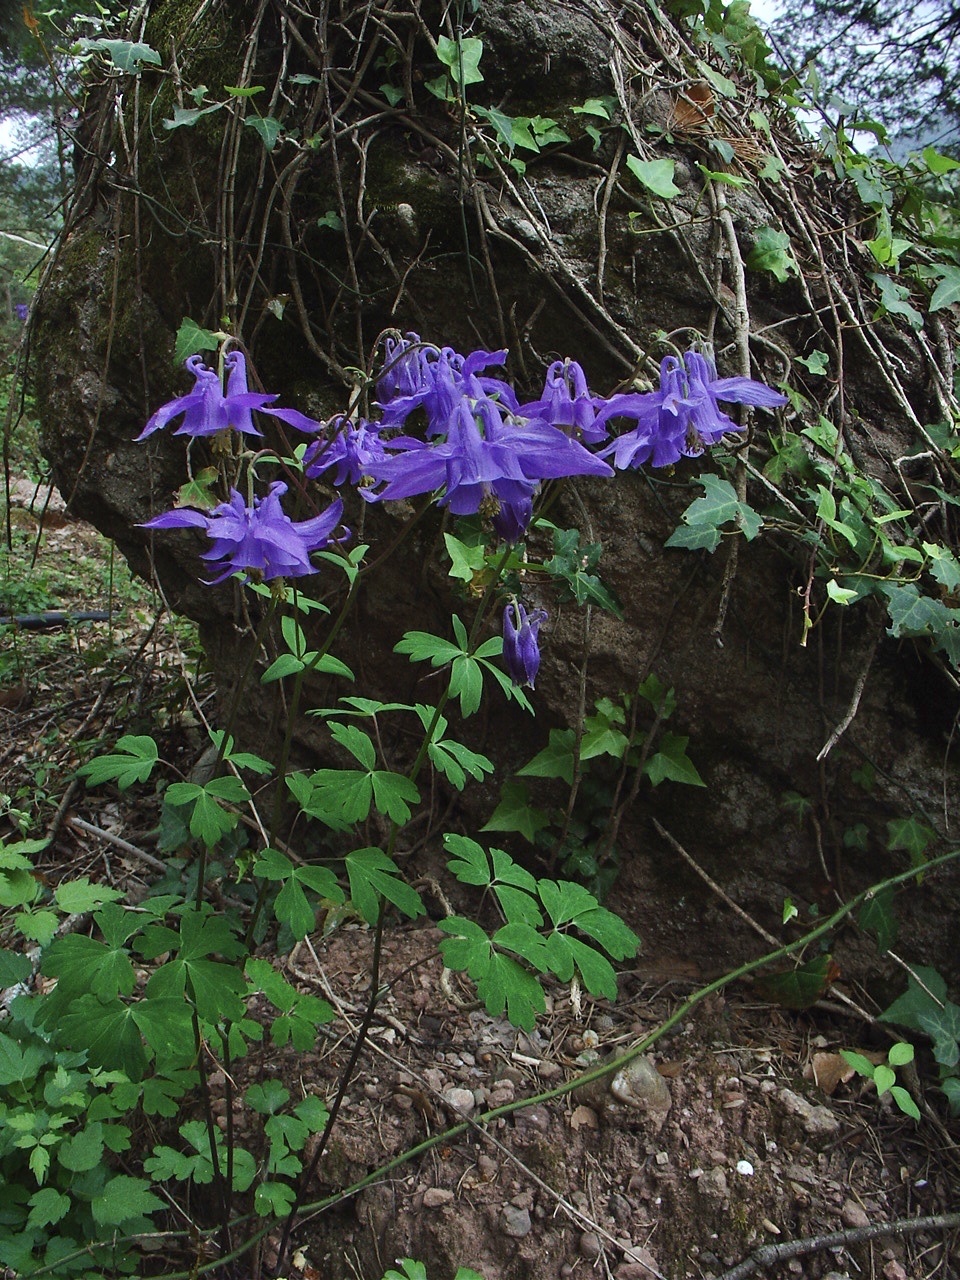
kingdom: Plantae
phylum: Tracheophyta
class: Magnoliopsida
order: Ranunculales
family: Ranunculaceae
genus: Aquilegia
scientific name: Aquilegia vulgaris
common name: Columbine
